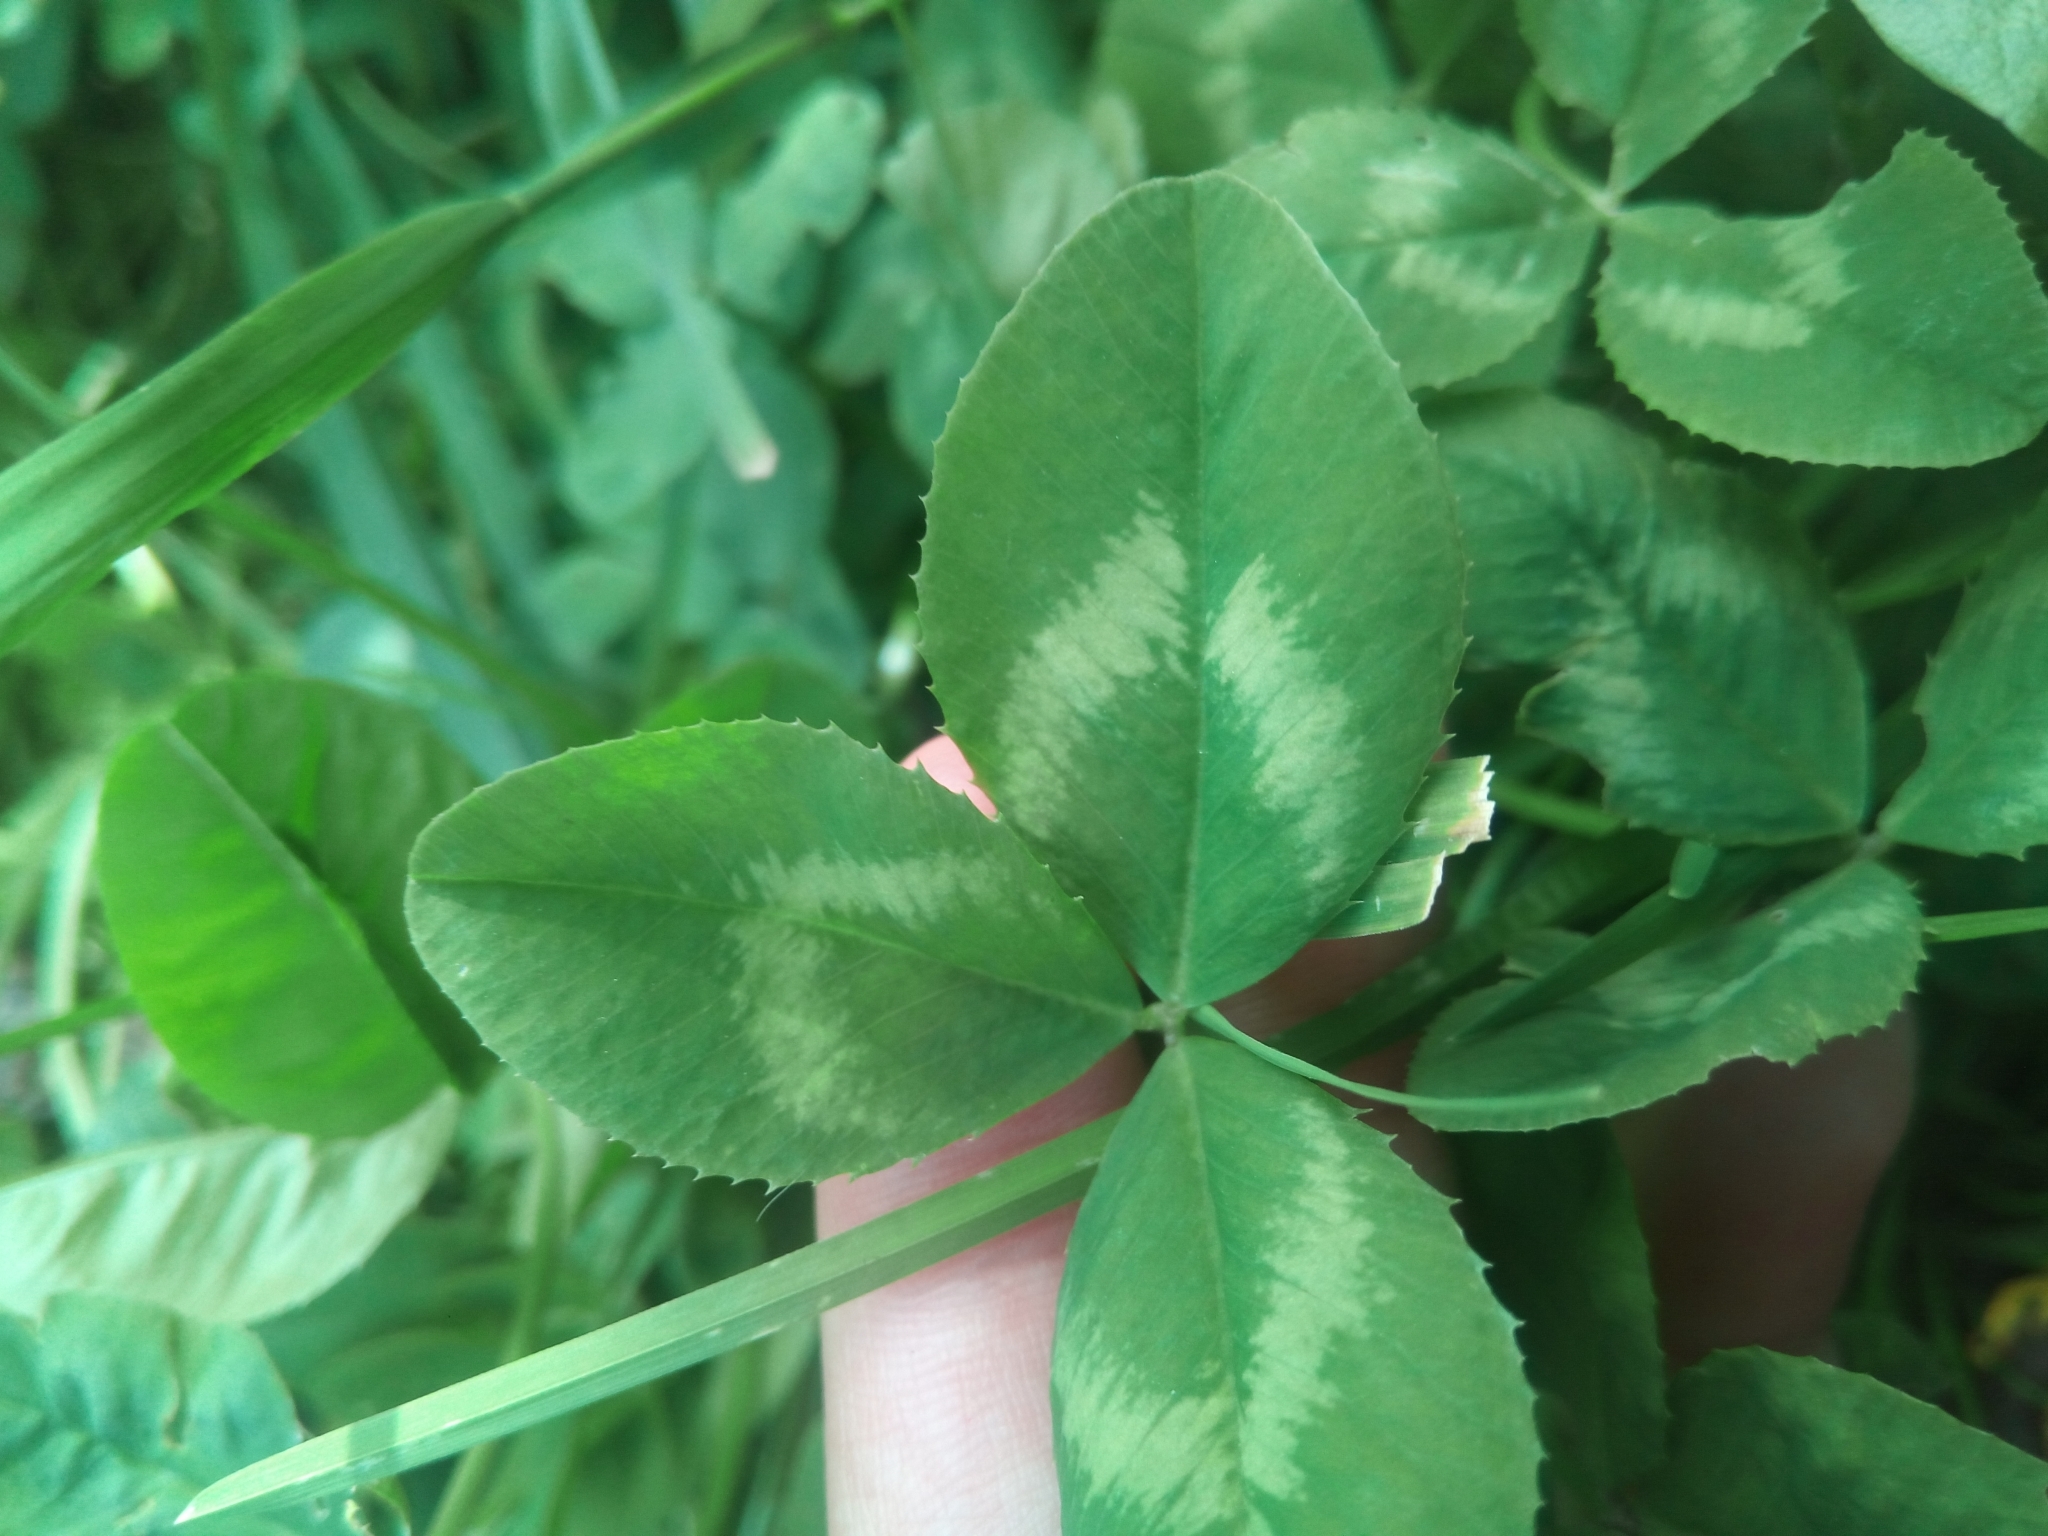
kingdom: Plantae
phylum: Tracheophyta
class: Magnoliopsida
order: Fabales
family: Fabaceae
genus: Trifolium
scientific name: Trifolium repens
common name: White clover
